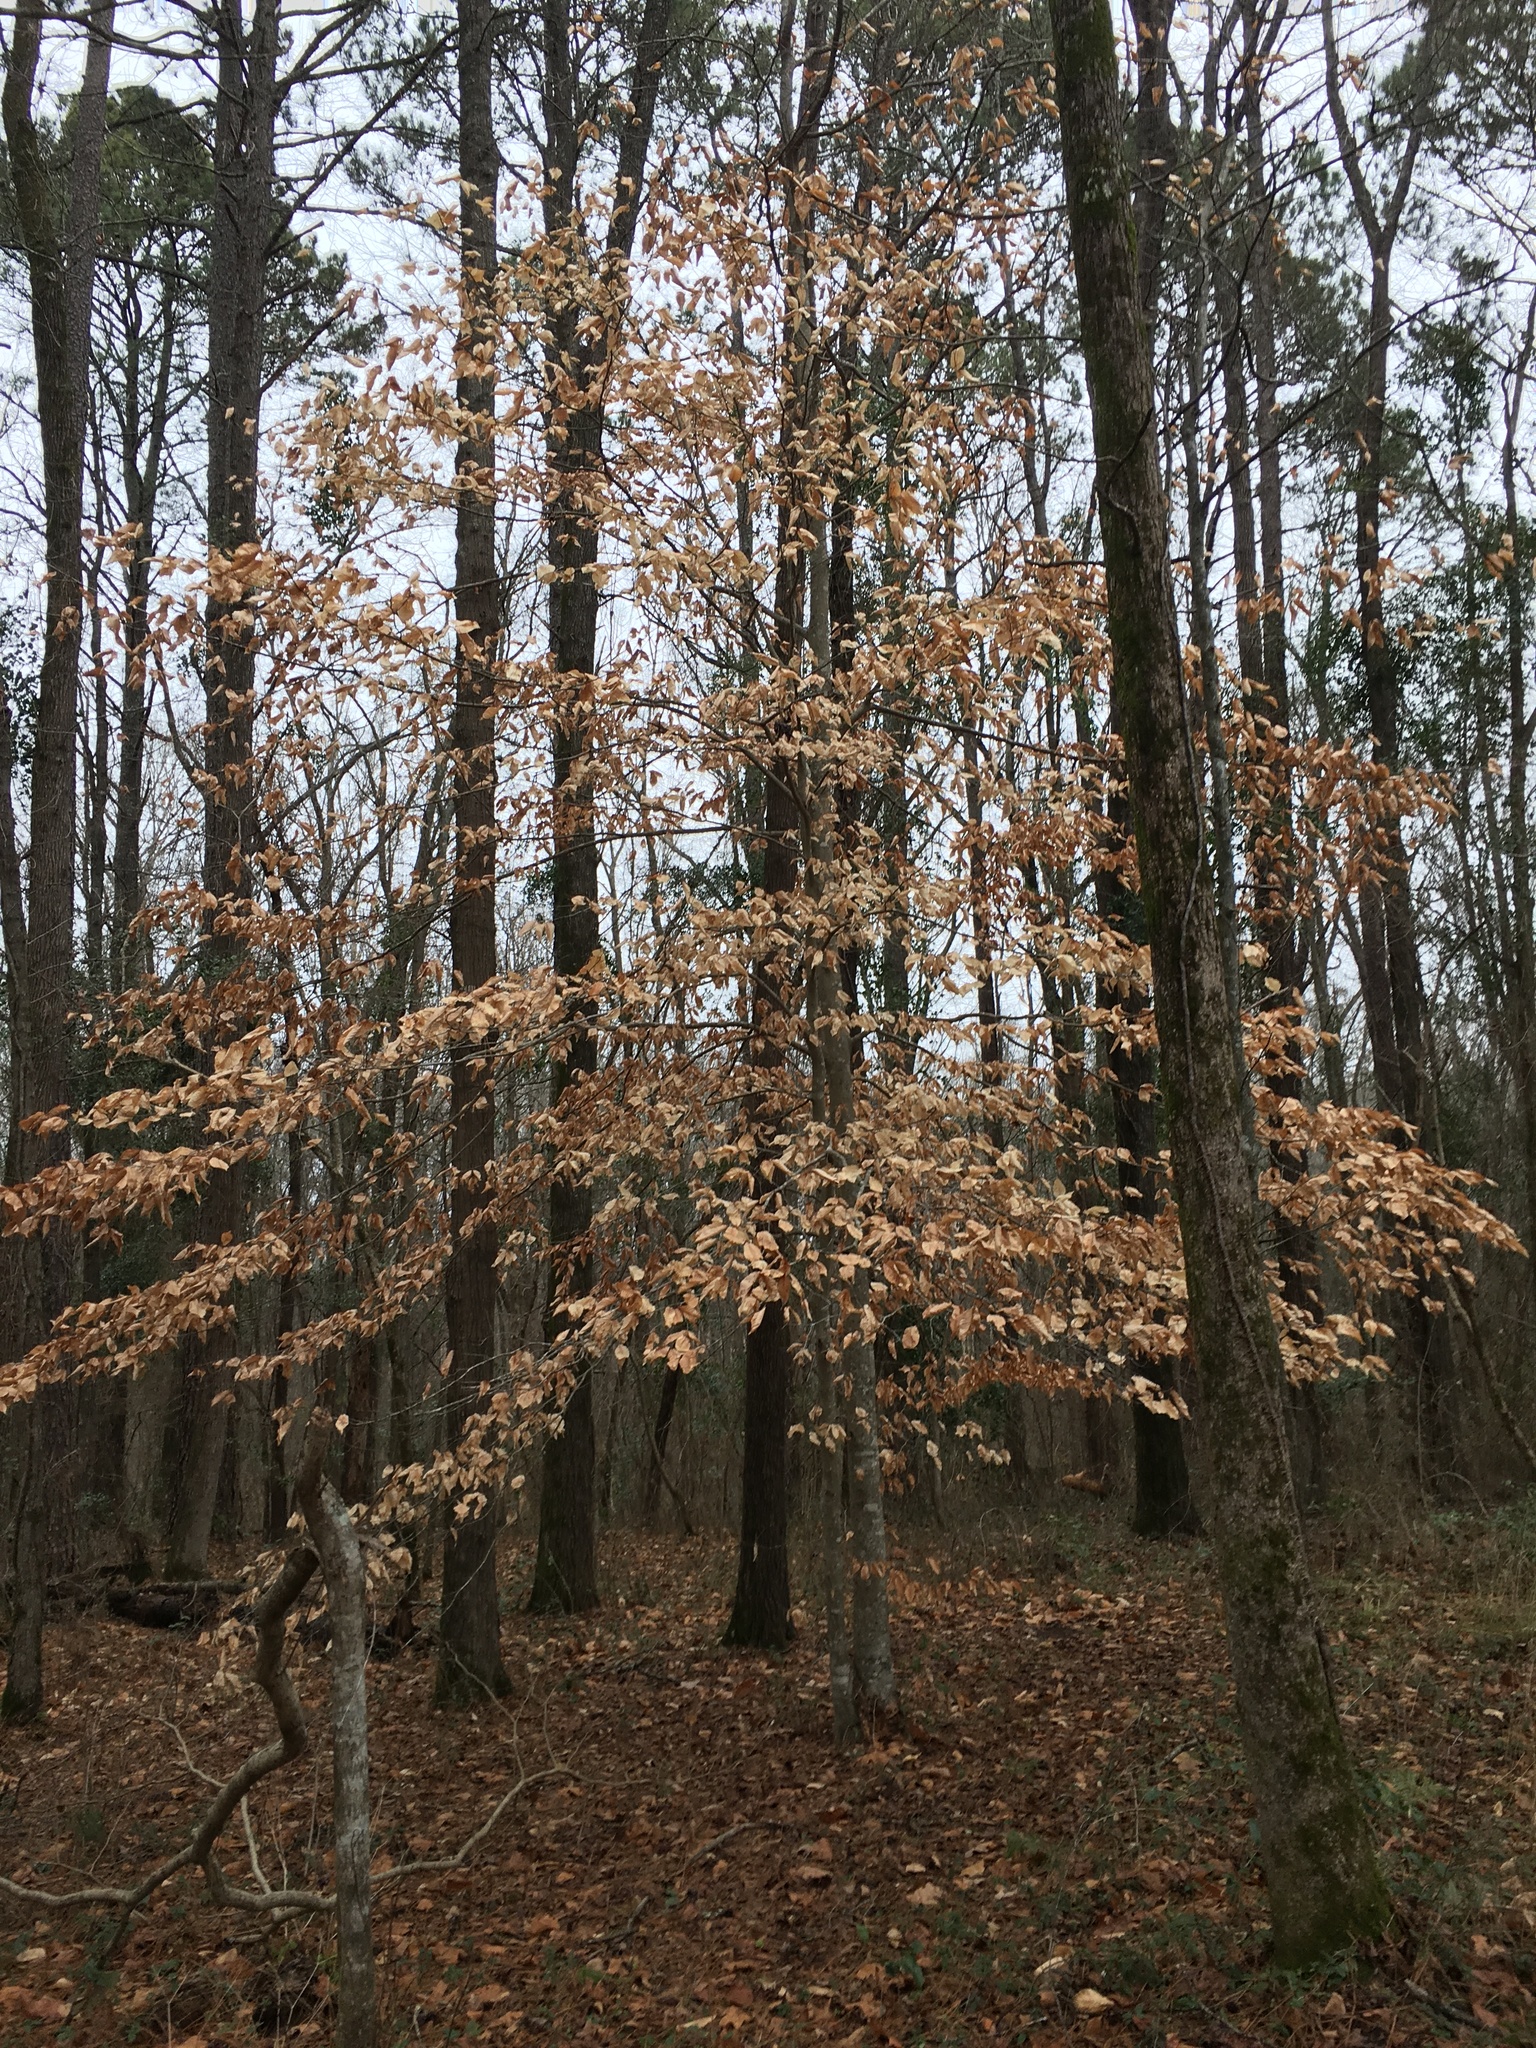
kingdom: Plantae
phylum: Tracheophyta
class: Magnoliopsida
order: Fagales
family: Fagaceae
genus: Fagus
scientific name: Fagus grandifolia
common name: American beech
